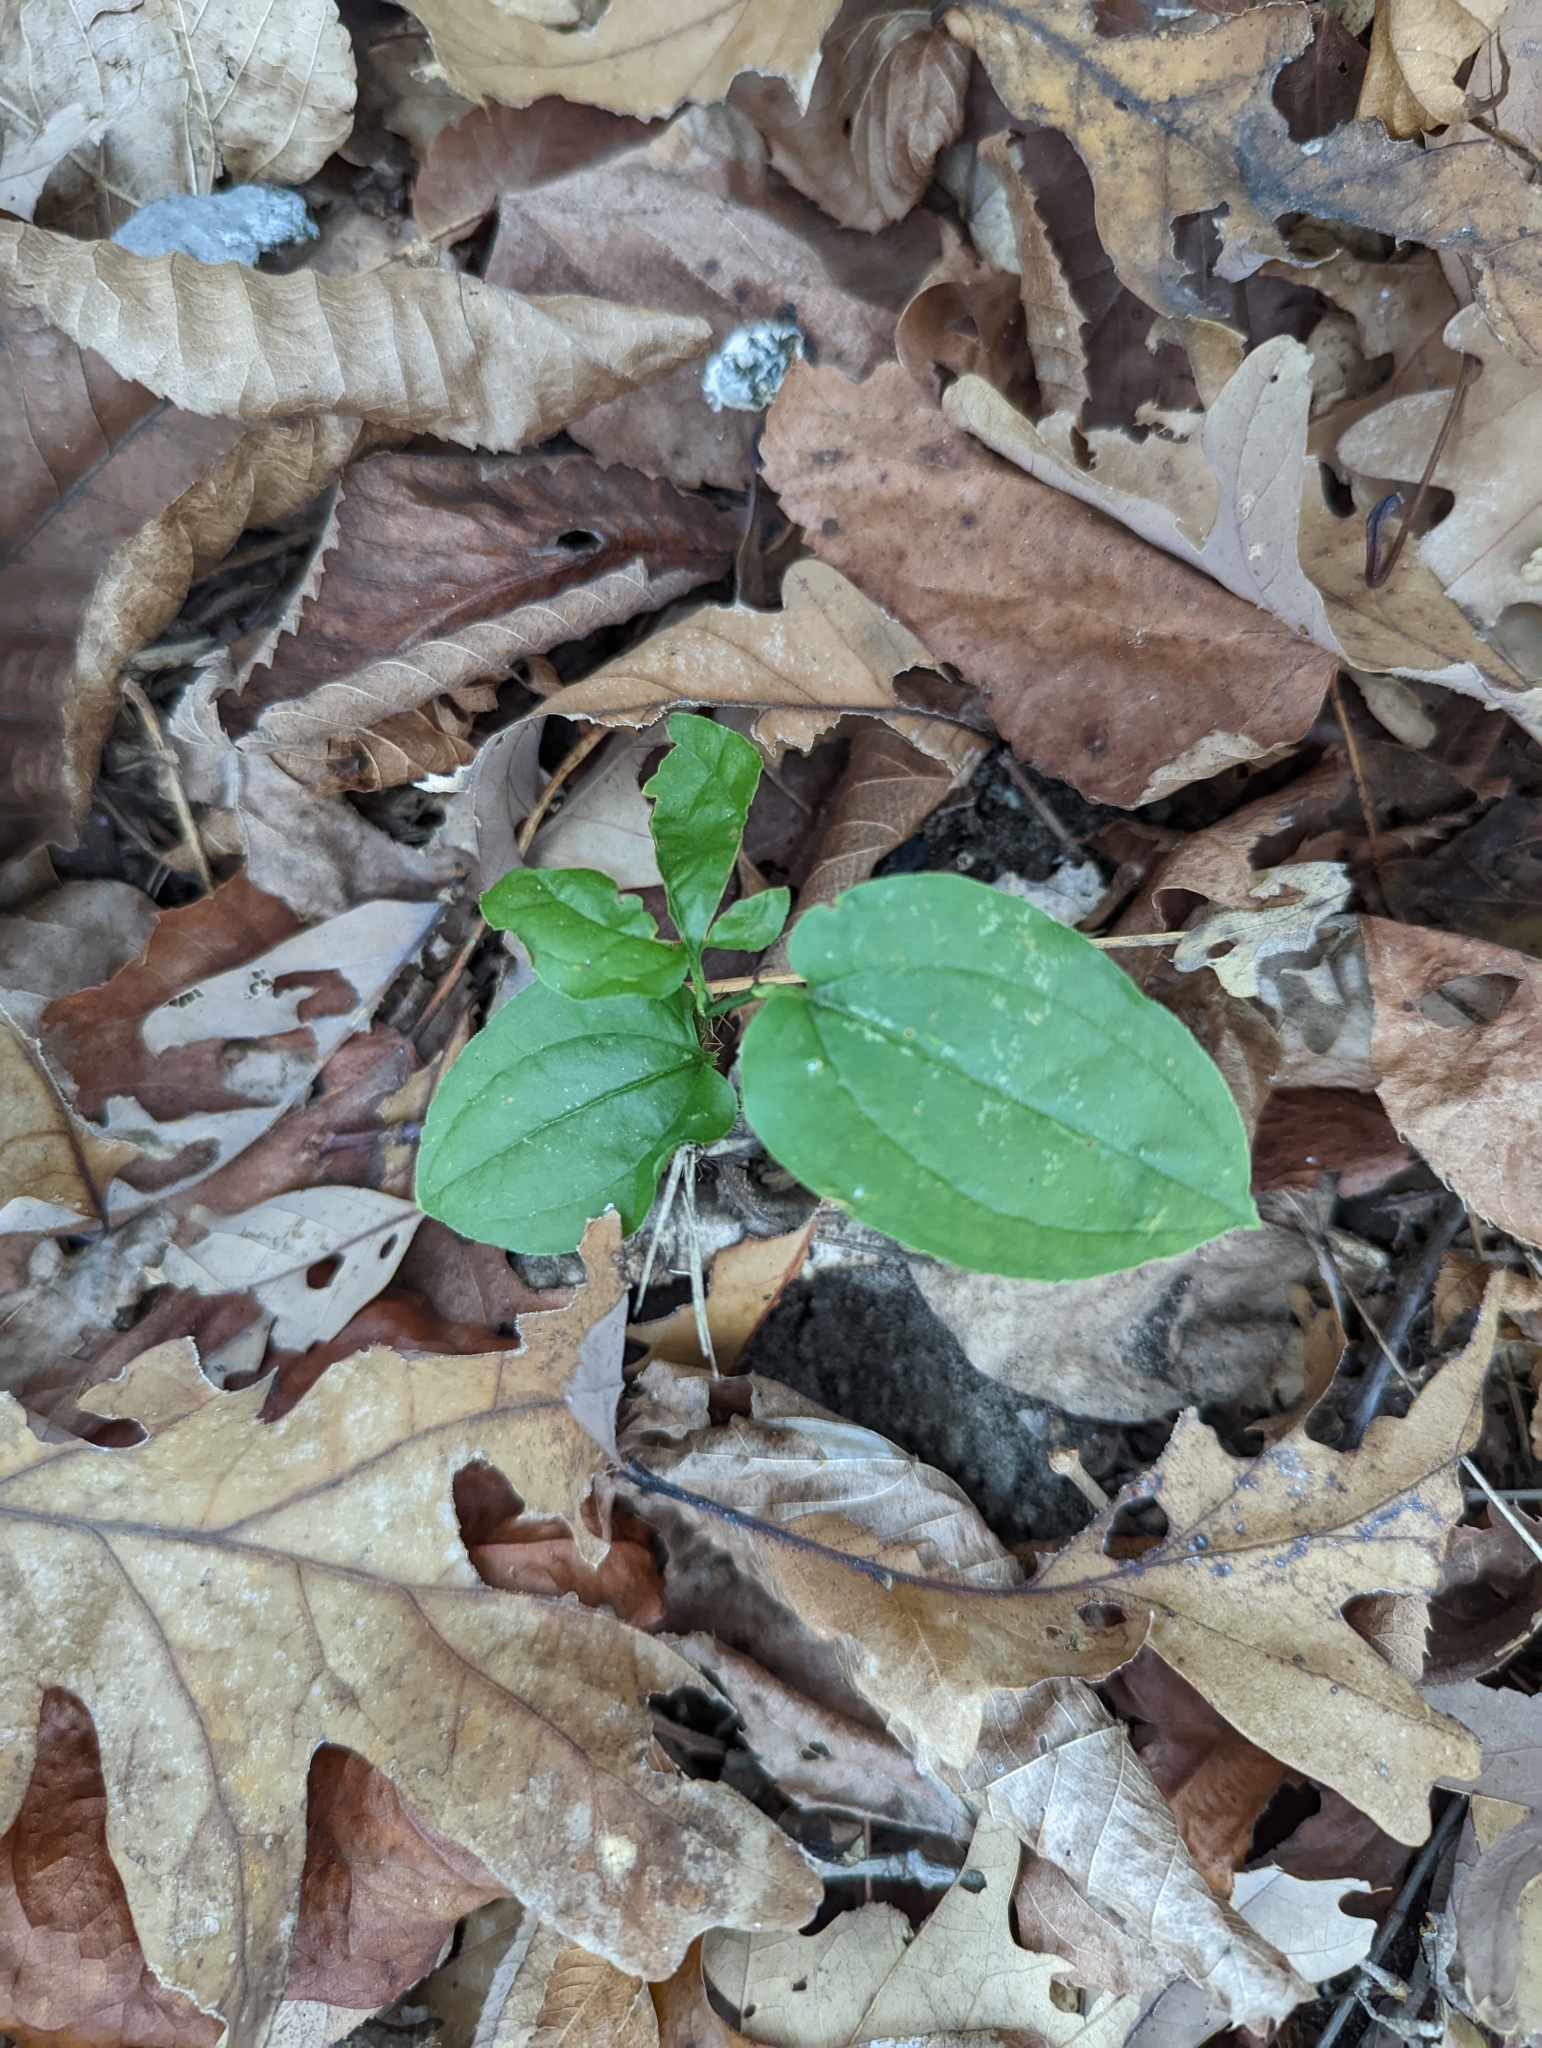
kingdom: Plantae
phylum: Tracheophyta
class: Liliopsida
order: Liliales
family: Smilacaceae
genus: Smilax
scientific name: Smilax tamnoides
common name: Hellfetter
